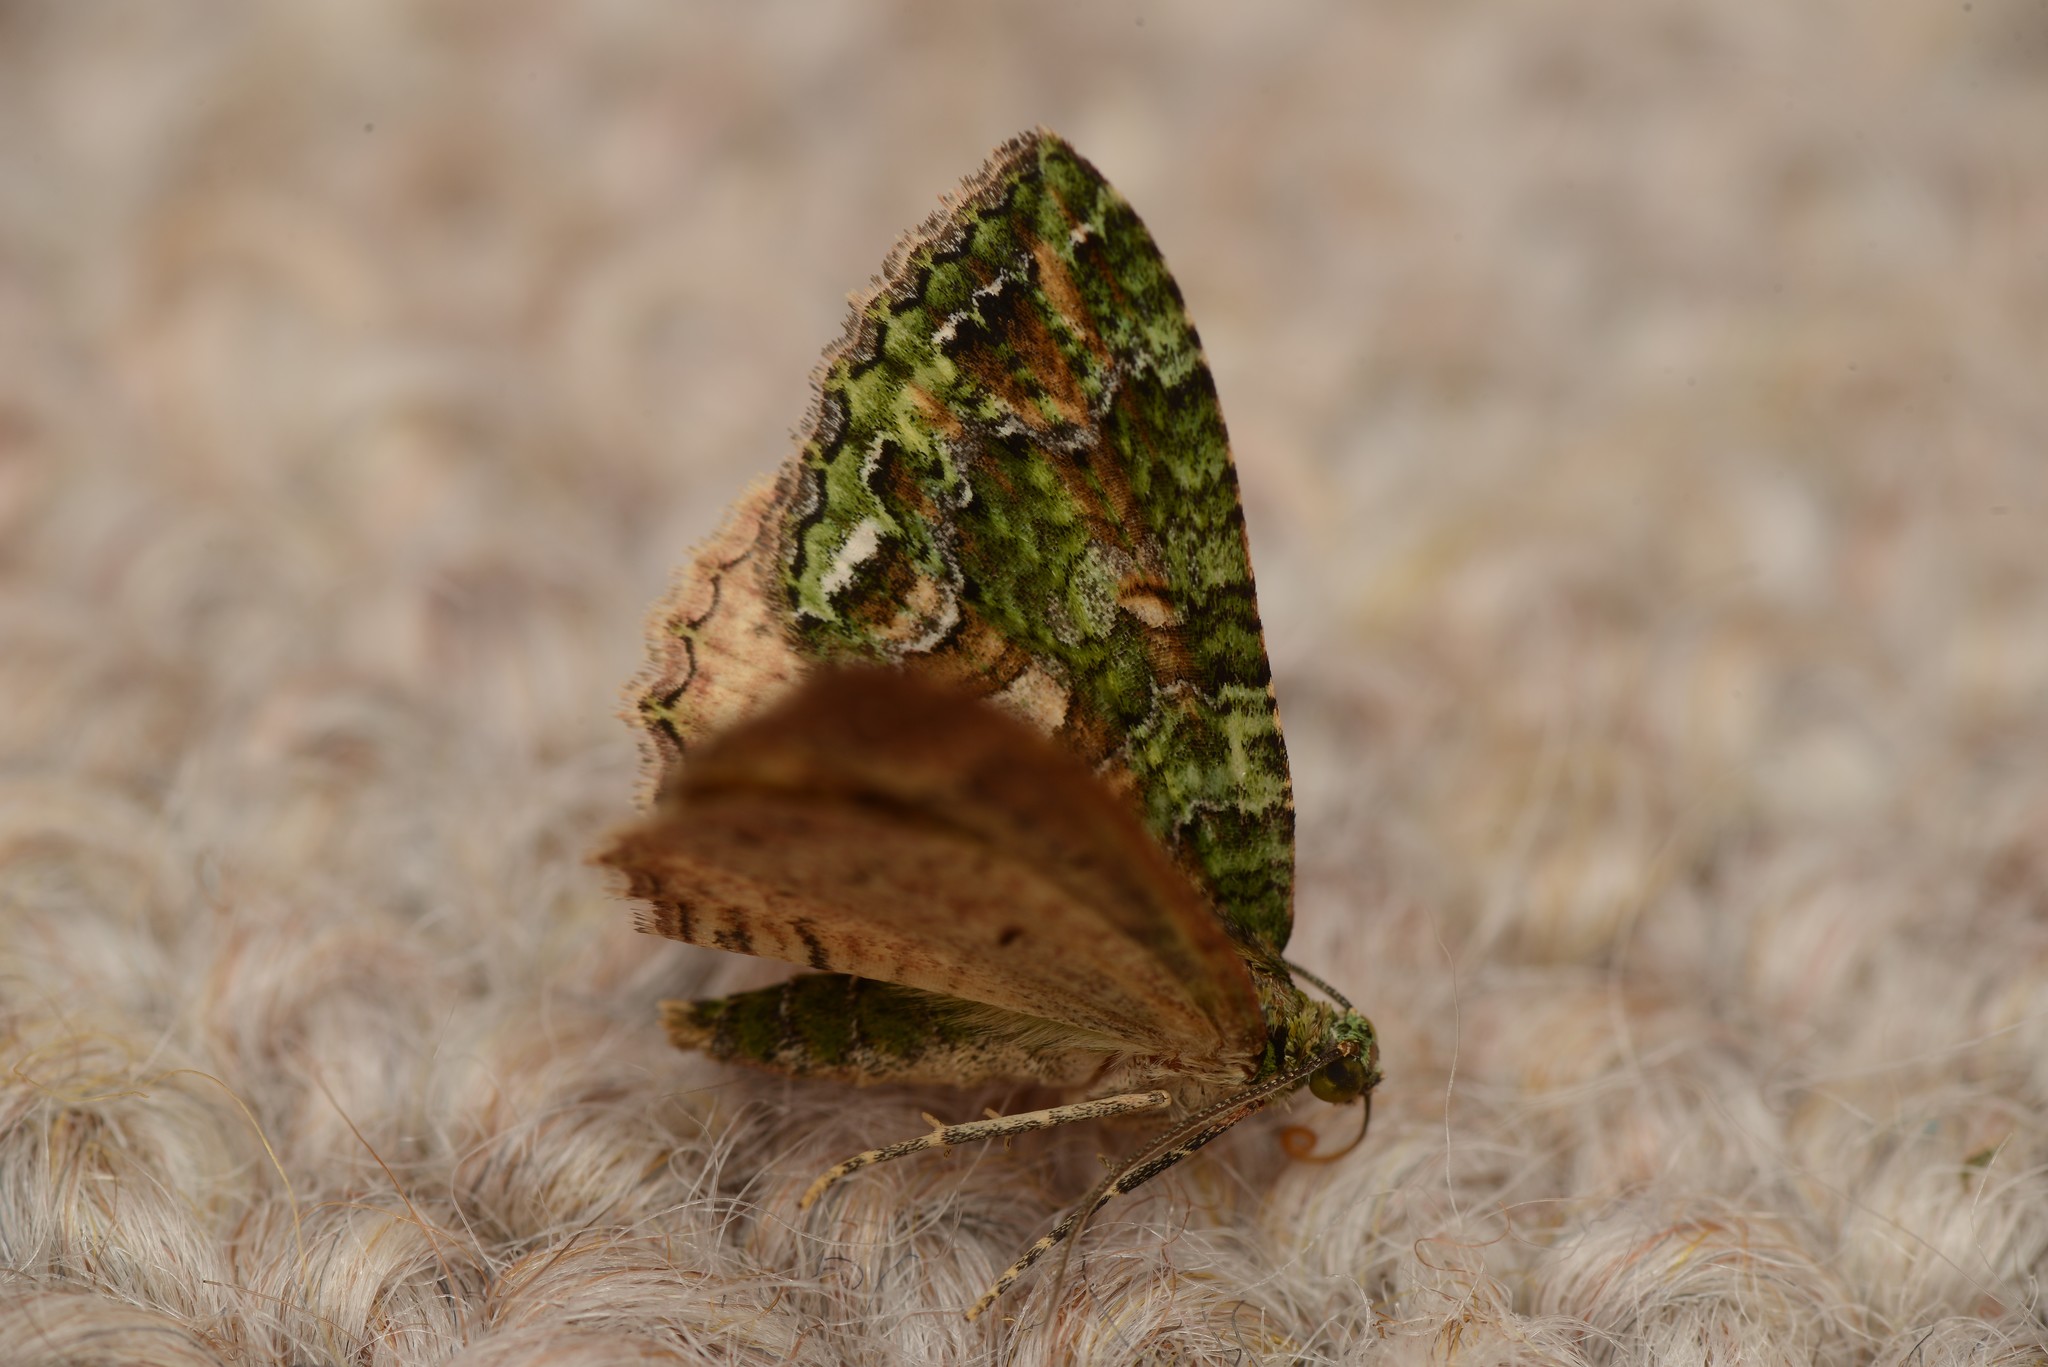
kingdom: Animalia
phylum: Arthropoda
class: Insecta
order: Lepidoptera
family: Geometridae
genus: Austrocidaria
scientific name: Austrocidaria similata
